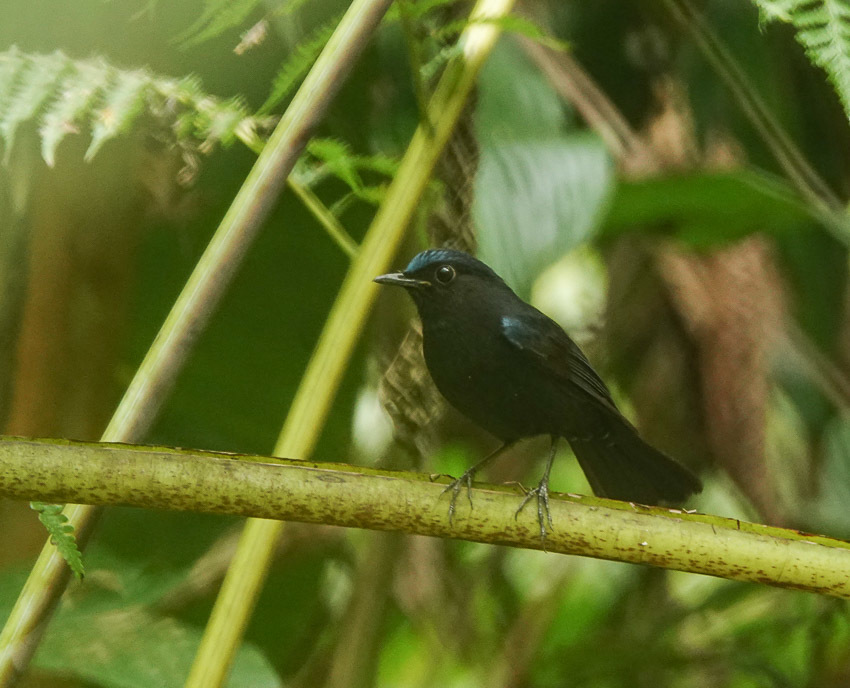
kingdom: Animalia
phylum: Chordata
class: Aves
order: Passeriformes
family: Muscicapidae
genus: Myiomela
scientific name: Myiomela leucura
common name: White-tailed robin
